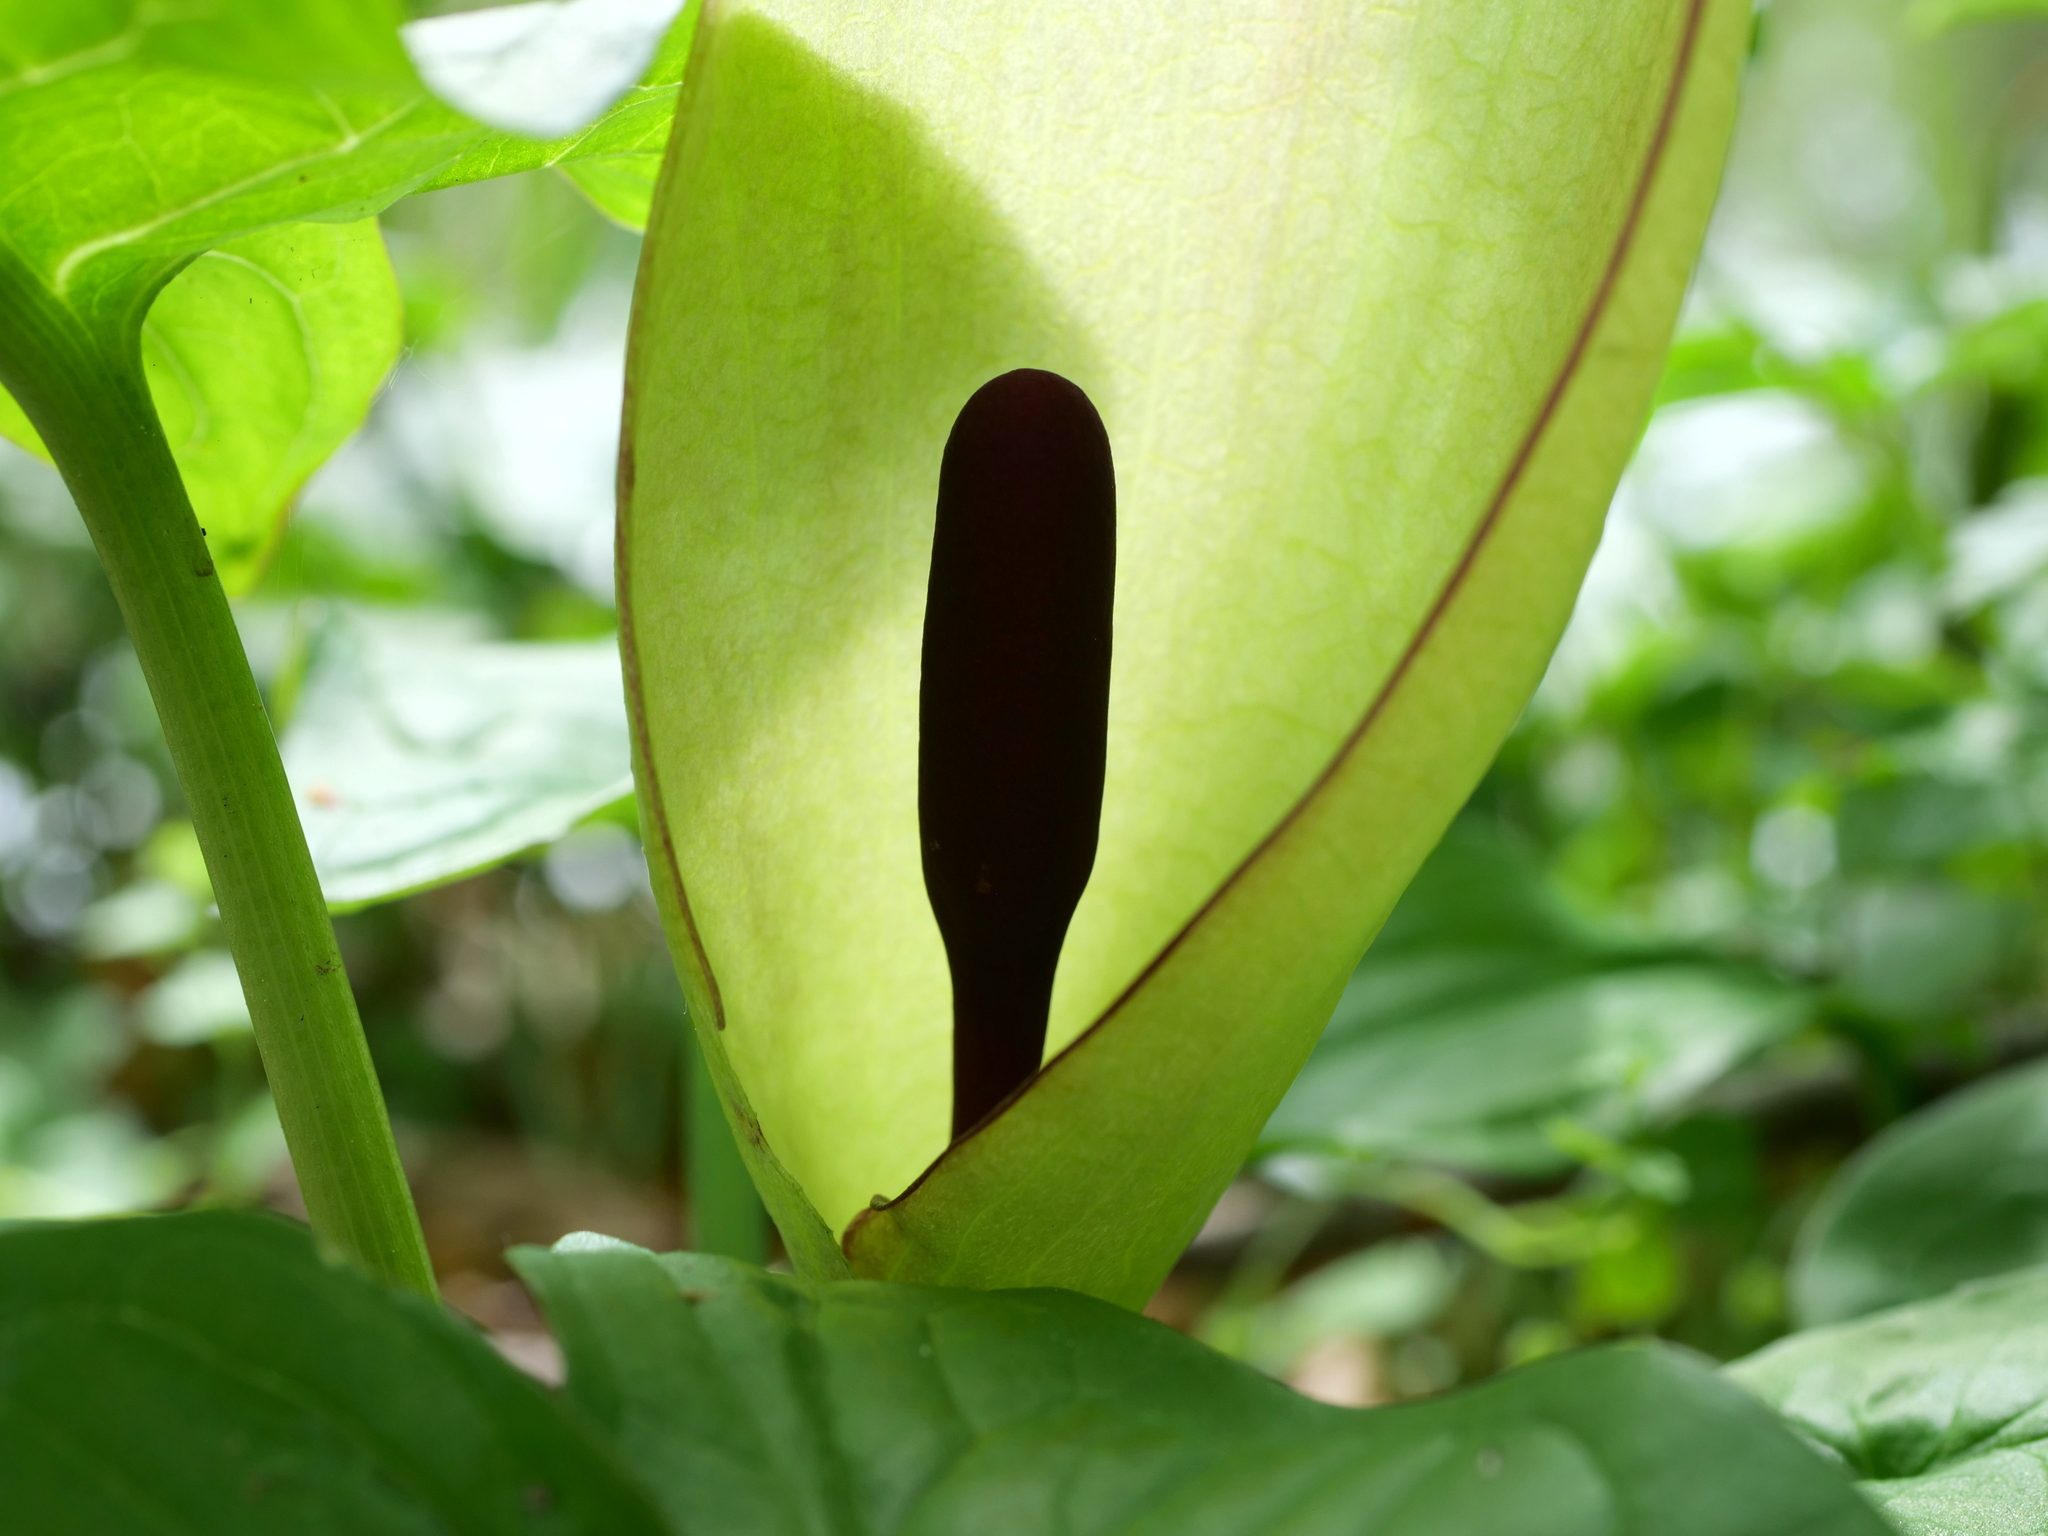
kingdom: Plantae
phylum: Tracheophyta
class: Liliopsida
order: Alismatales
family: Araceae
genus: Arum
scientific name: Arum maculatum
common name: Lords-and-ladies
